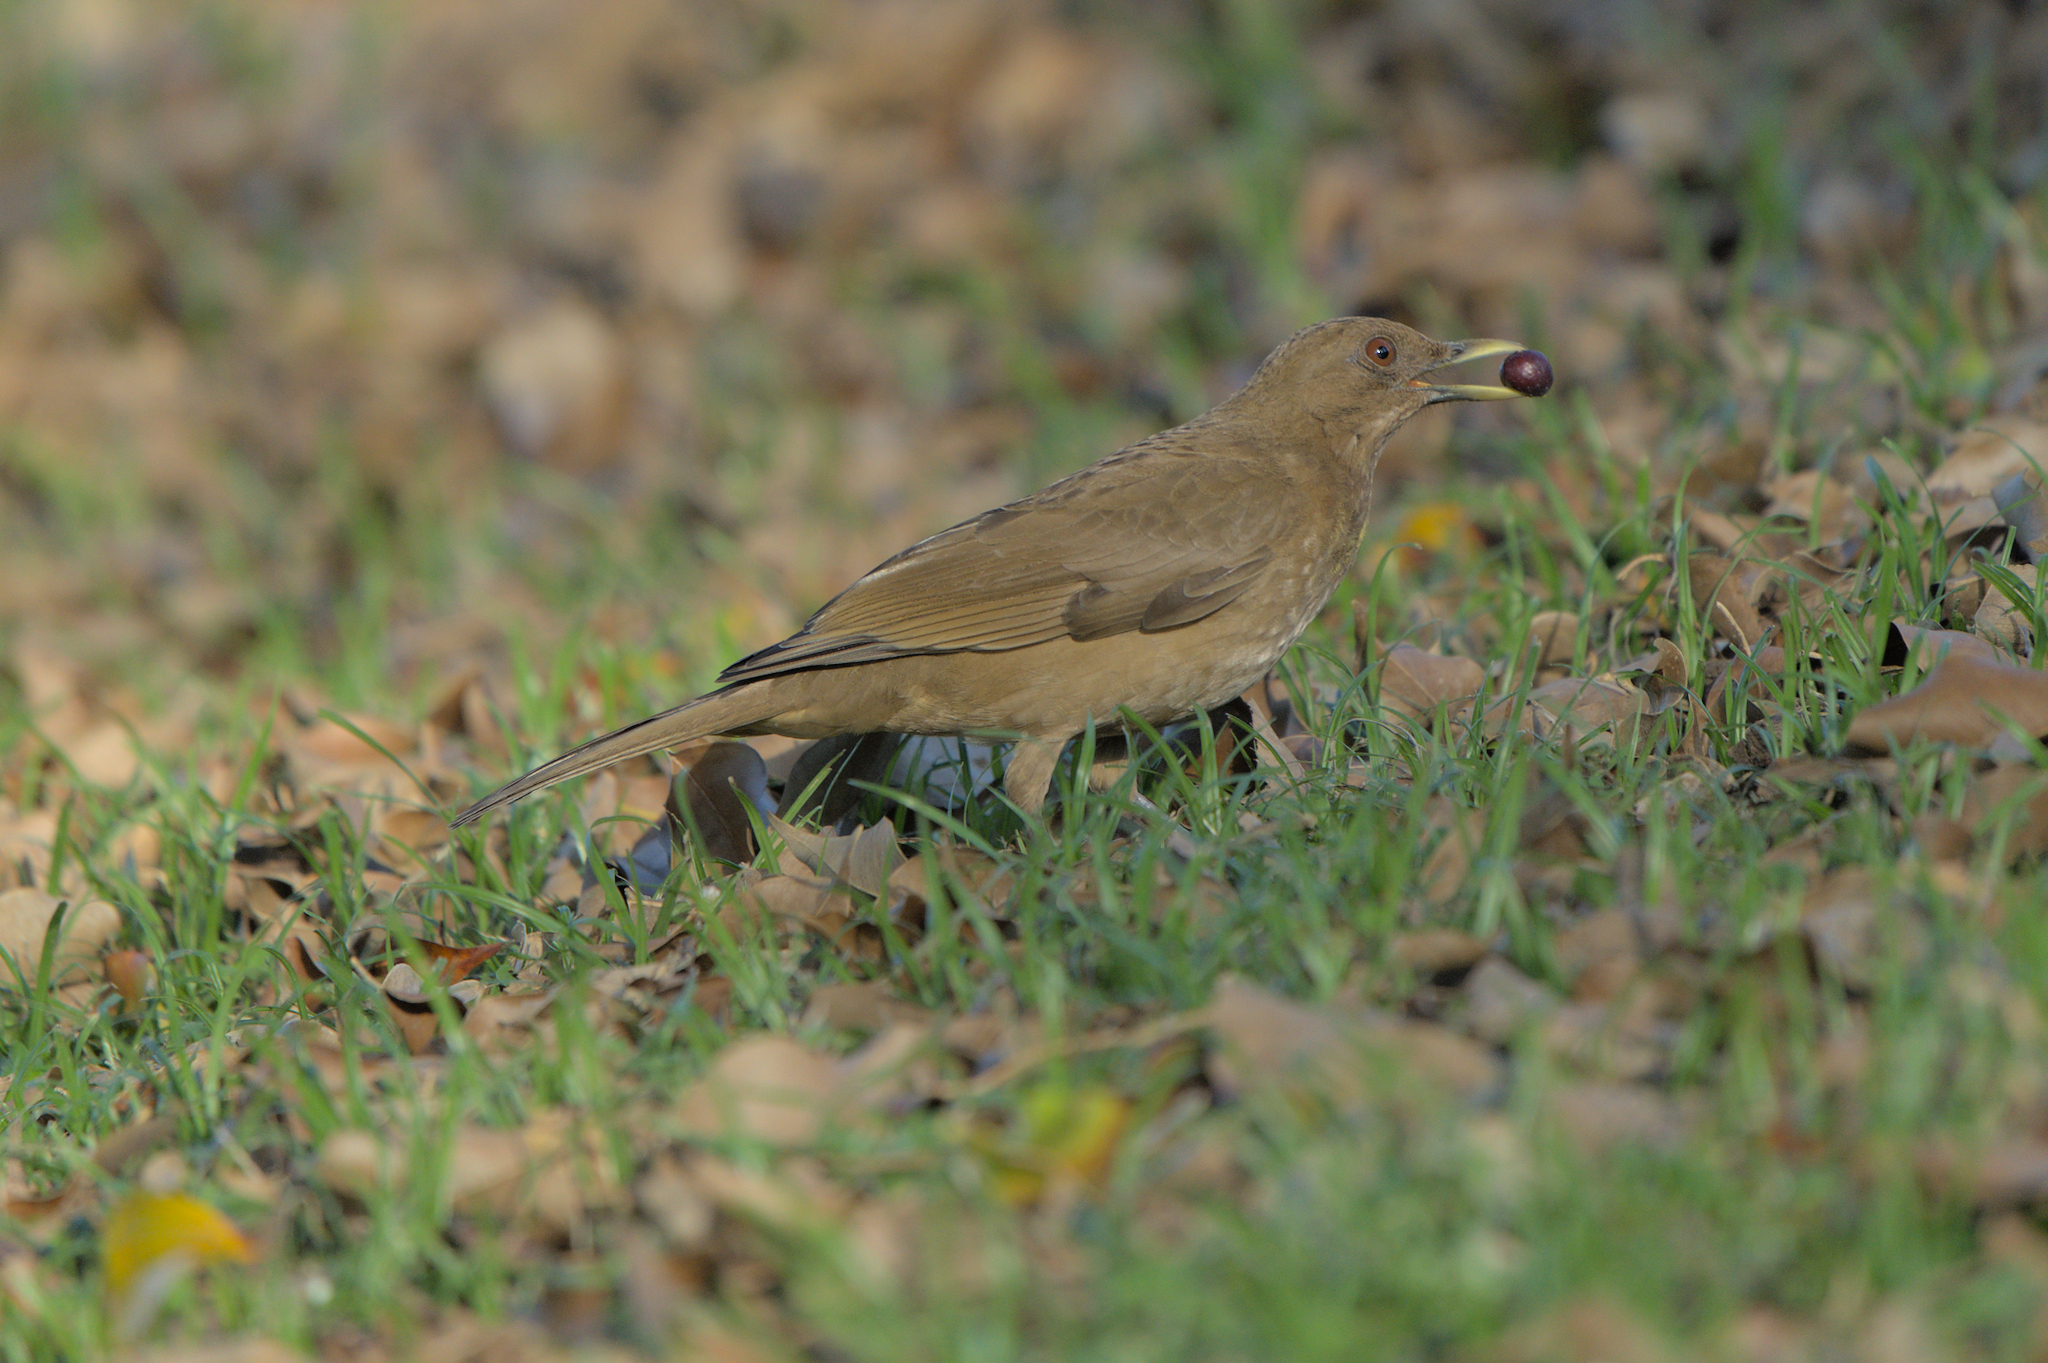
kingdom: Animalia
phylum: Chordata
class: Aves
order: Passeriformes
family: Turdidae
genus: Turdus
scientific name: Turdus grayi
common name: Clay-colored thrush
